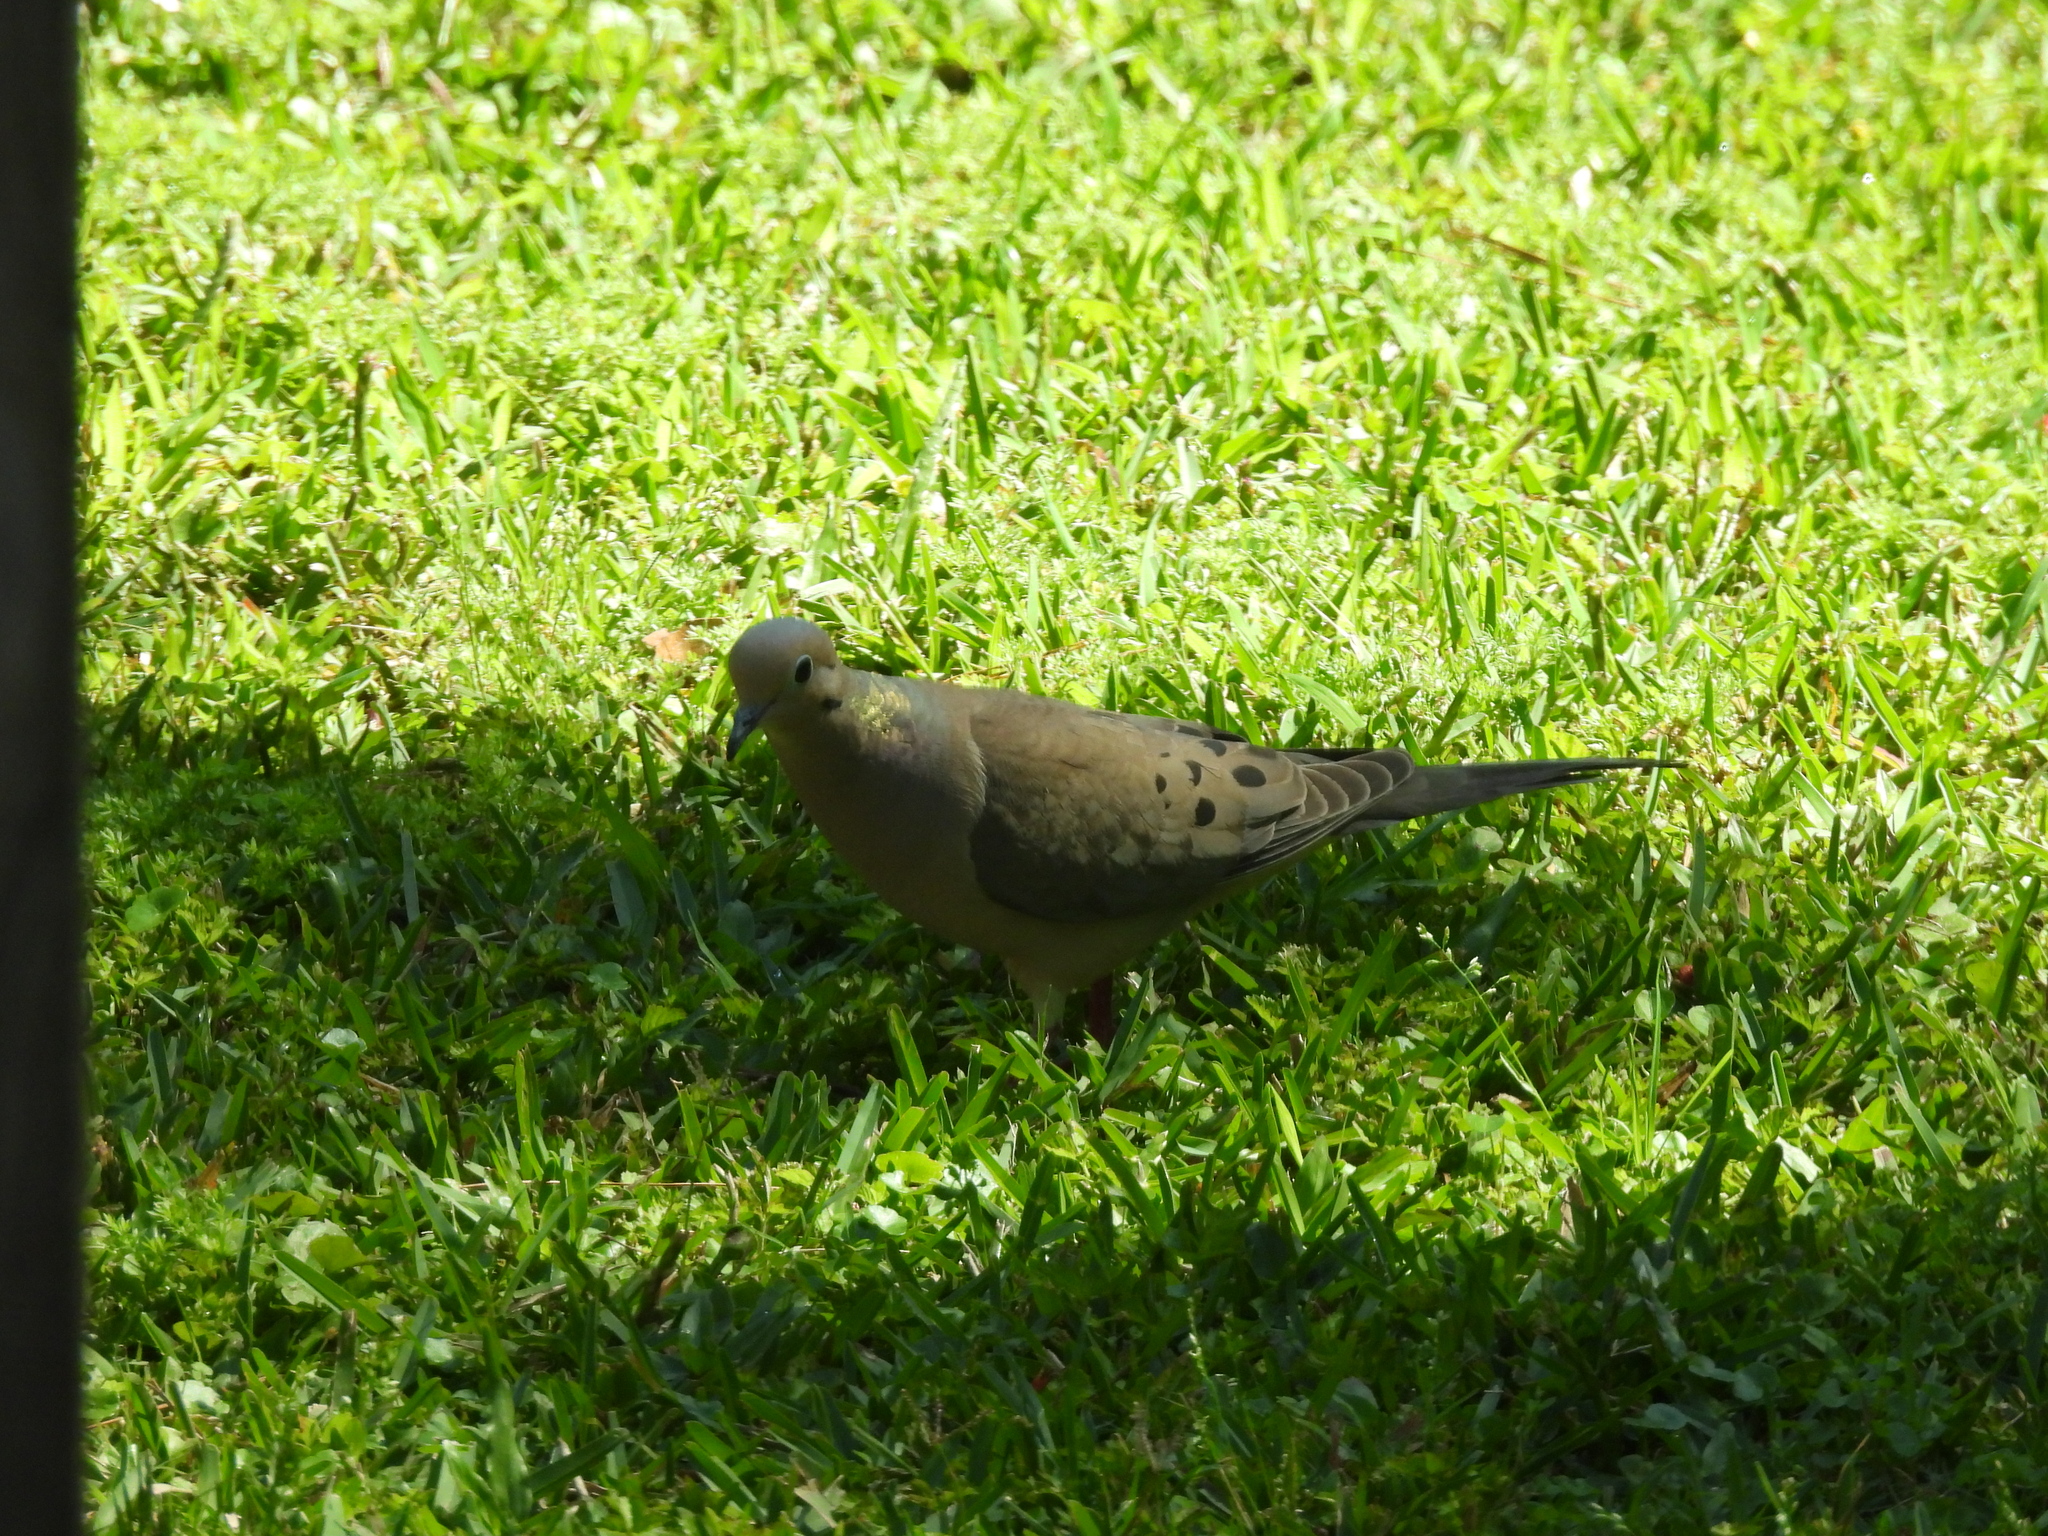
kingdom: Animalia
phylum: Chordata
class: Aves
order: Columbiformes
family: Columbidae
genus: Zenaida
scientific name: Zenaida macroura
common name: Mourning dove
